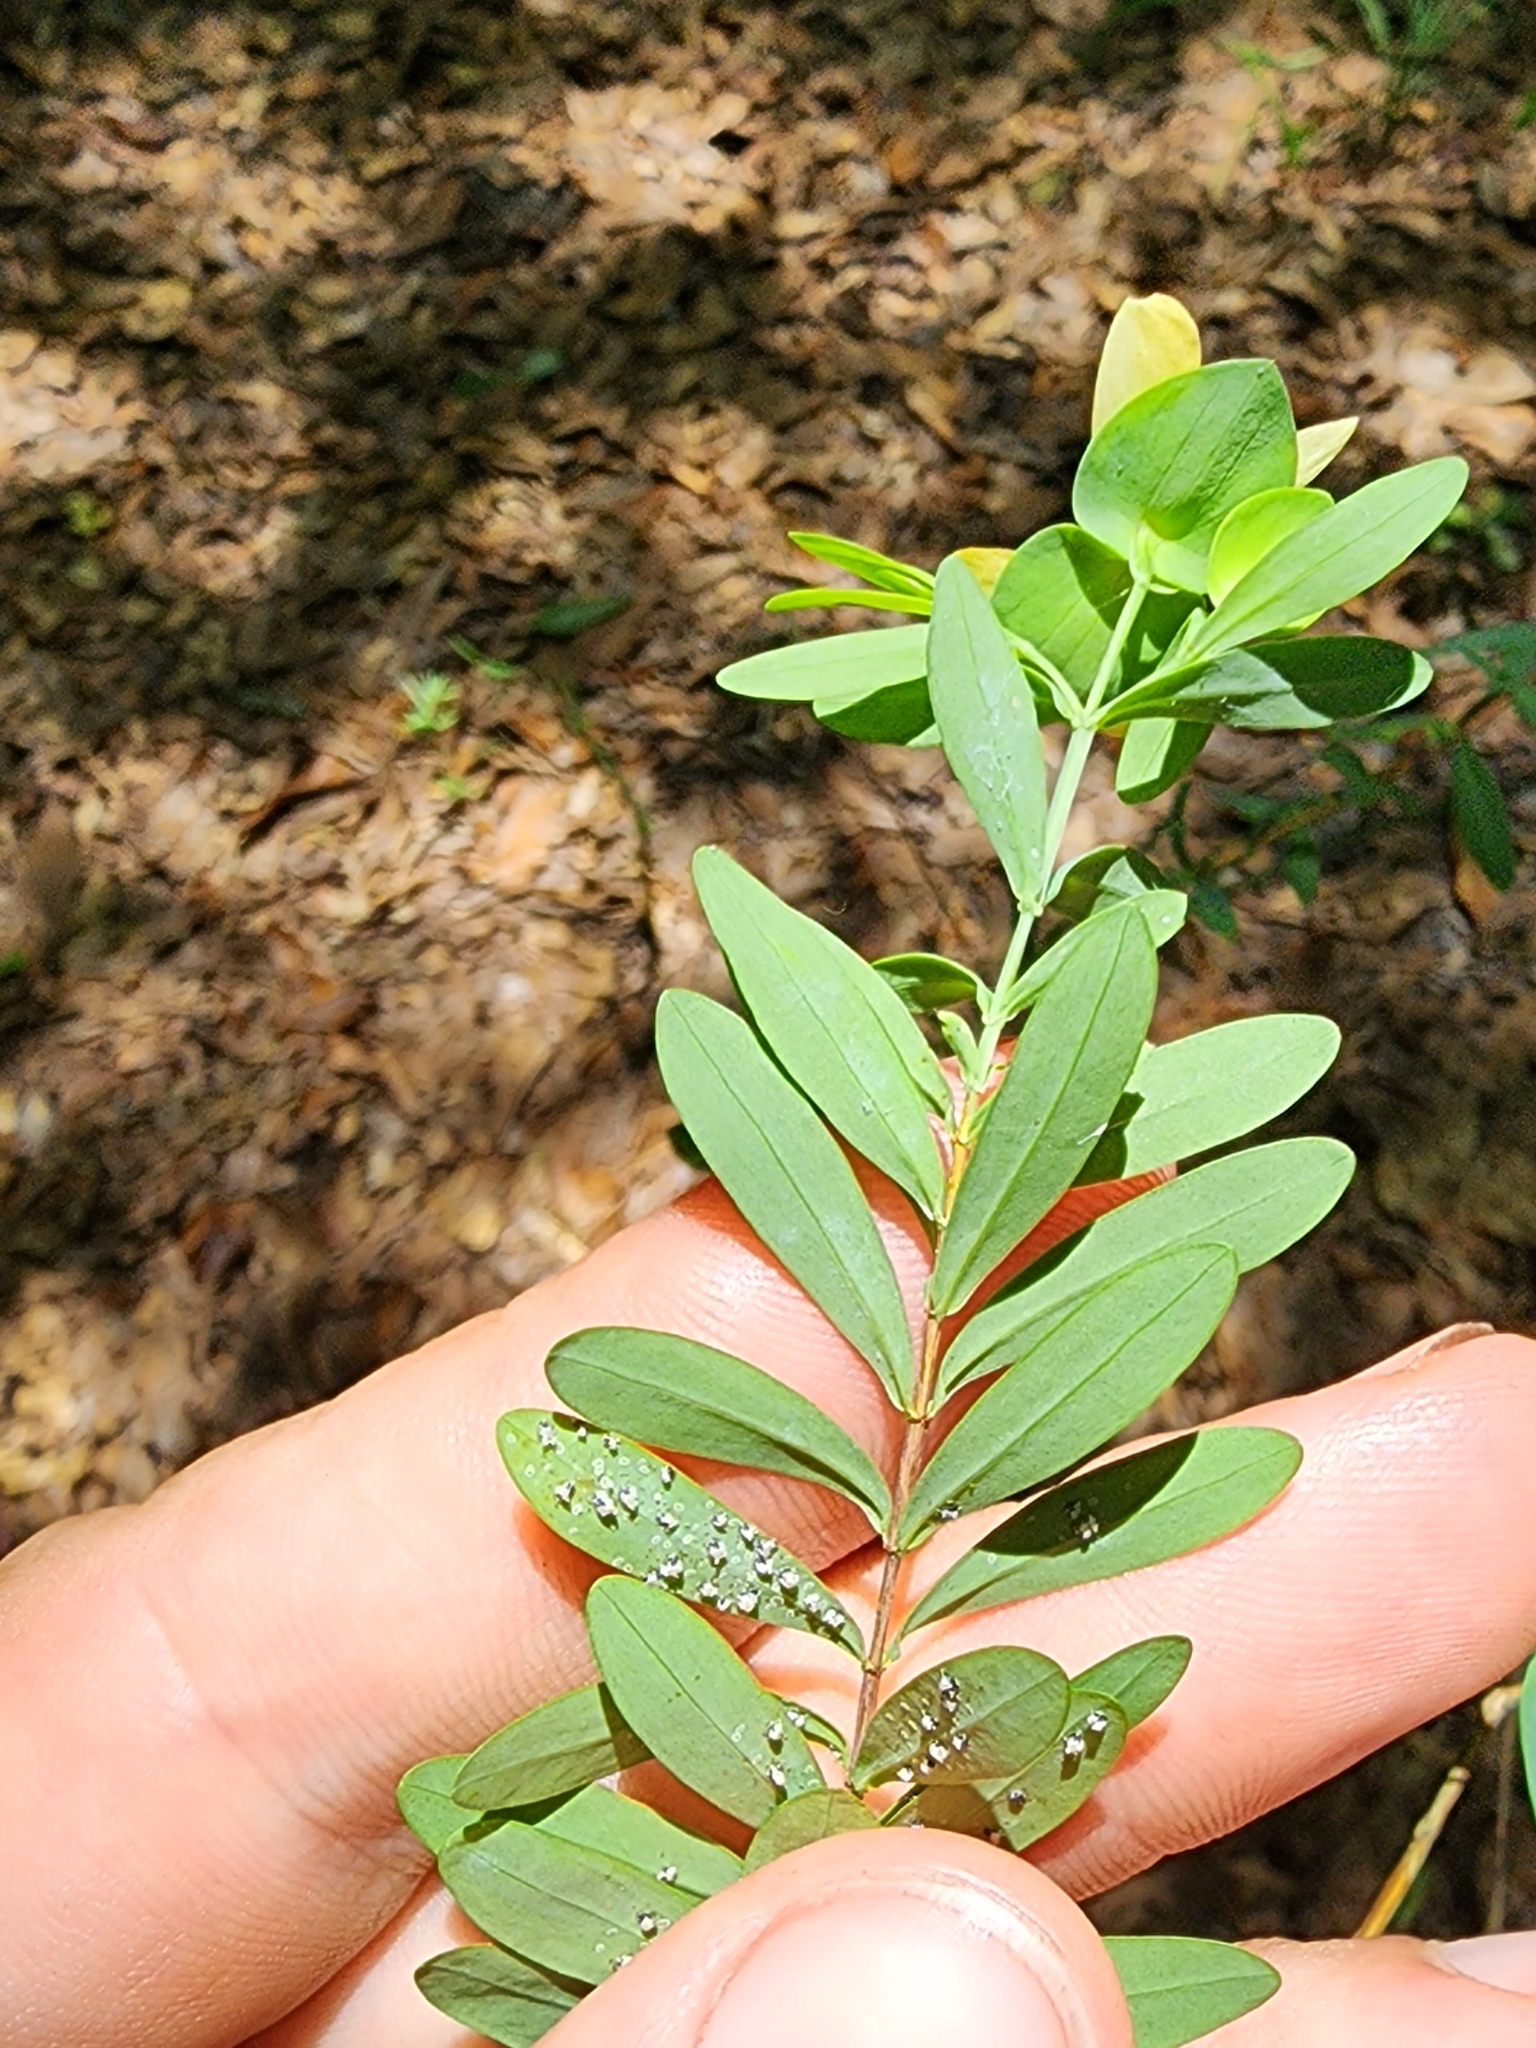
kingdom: Plantae
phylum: Tracheophyta
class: Magnoliopsida
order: Malpighiales
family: Hypericaceae
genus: Hypericum
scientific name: Hypericum hypericoides
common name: St. andrew's cross
